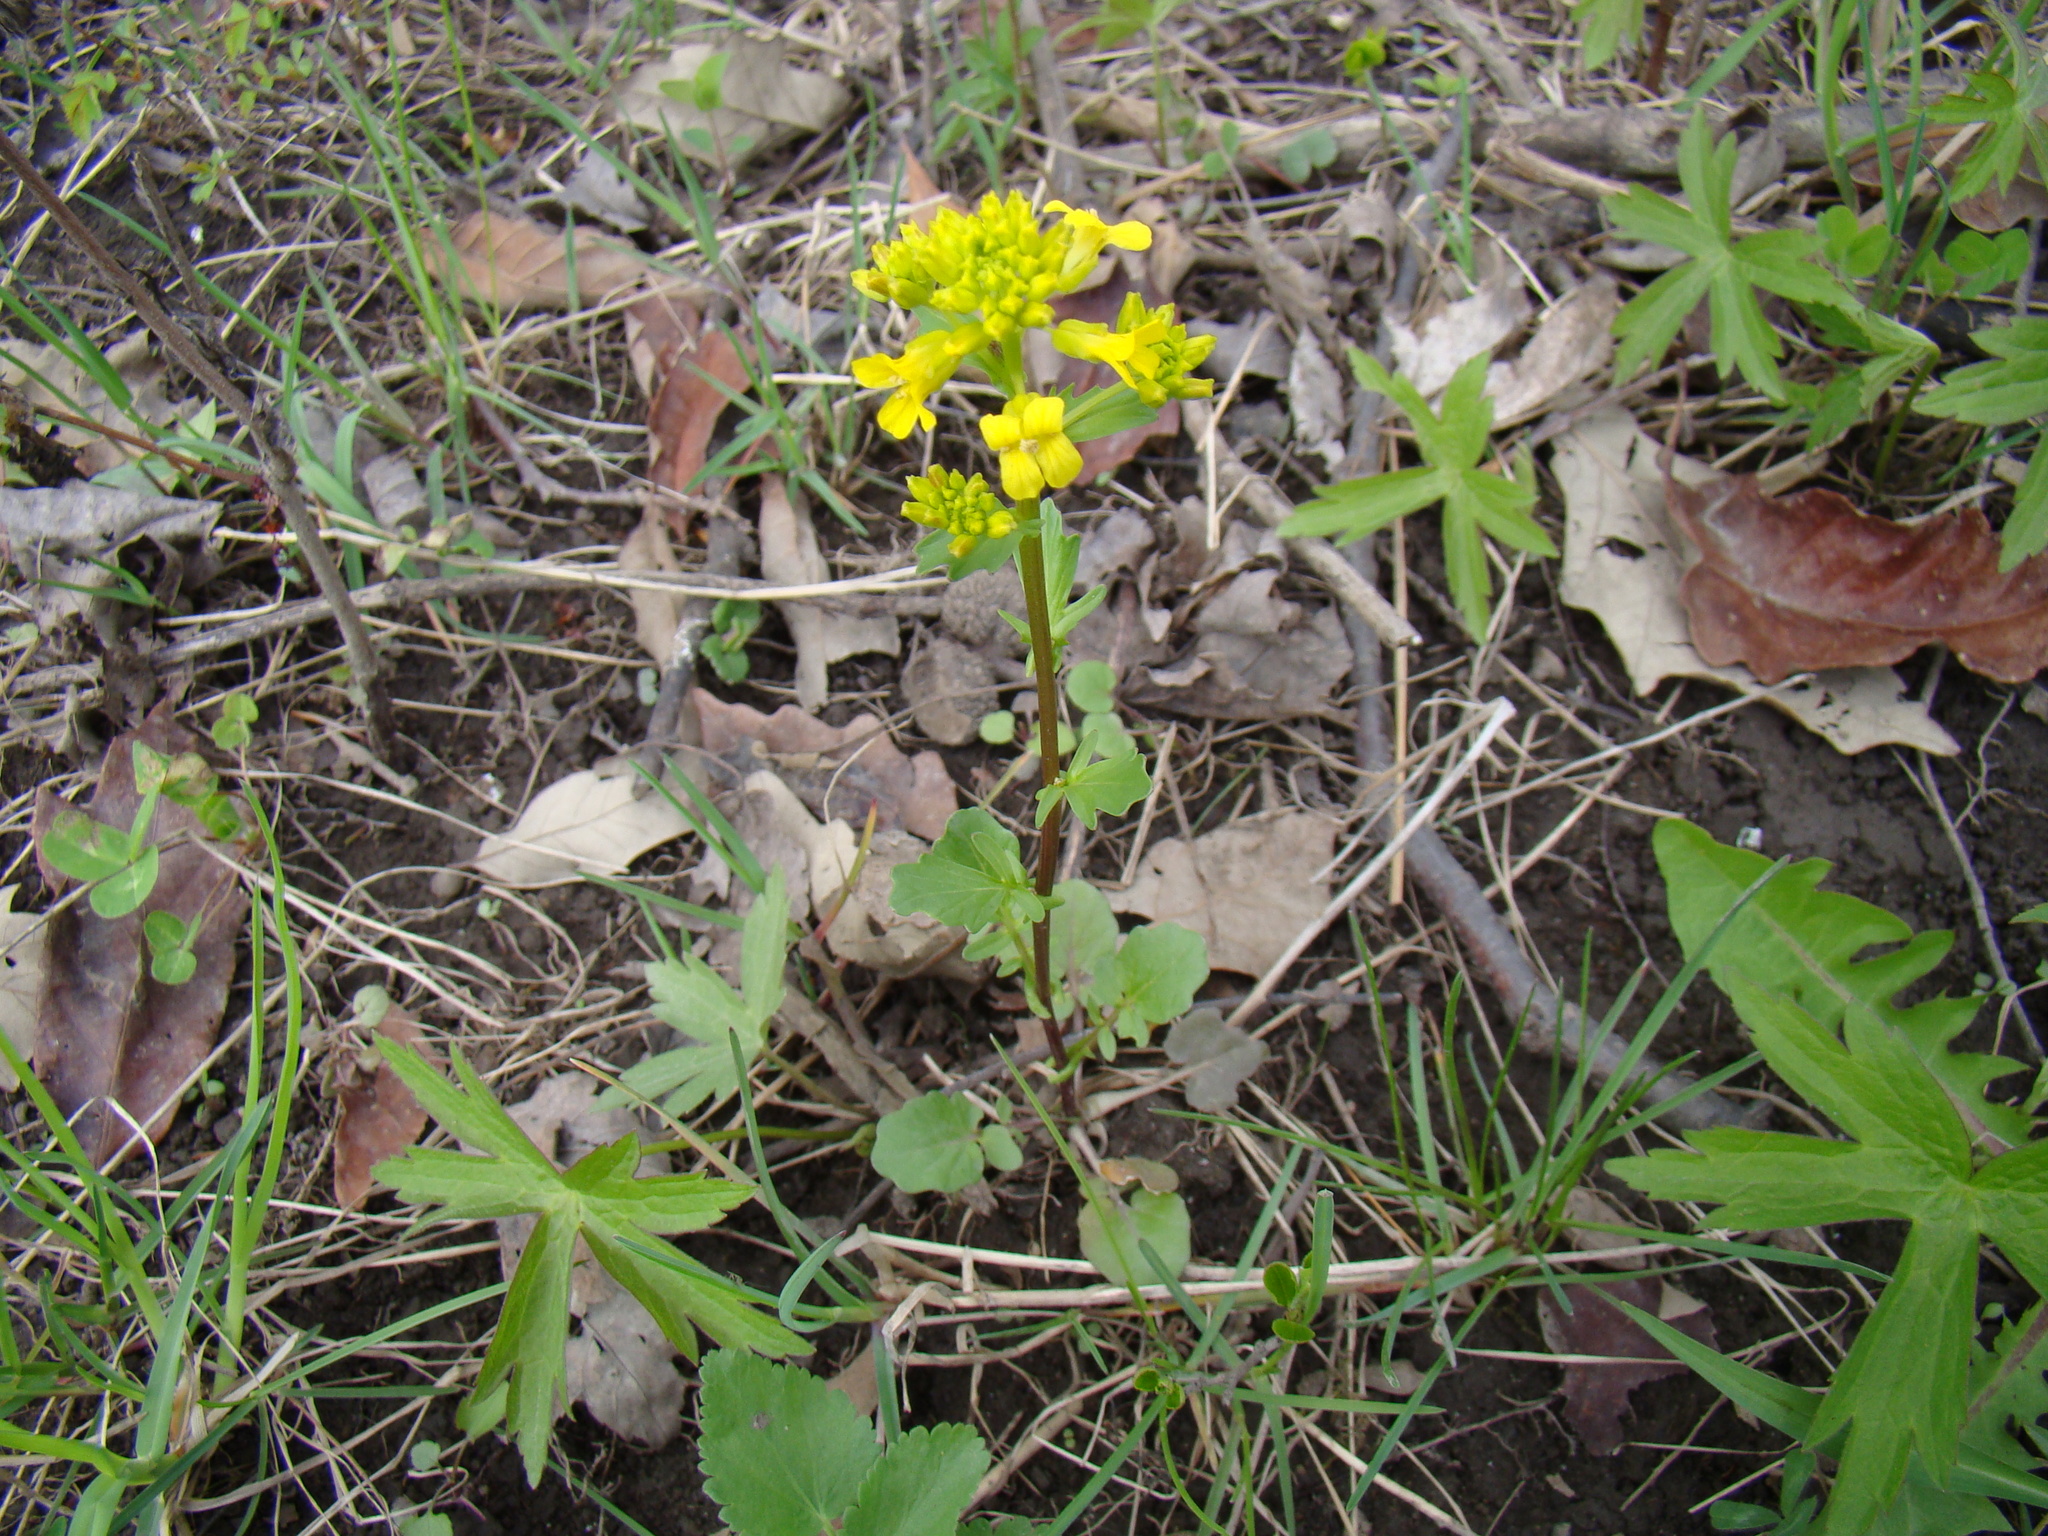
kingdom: Plantae
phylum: Tracheophyta
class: Magnoliopsida
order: Brassicales
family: Brassicaceae
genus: Barbarea
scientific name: Barbarea vulgaris
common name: Cressy-greens
